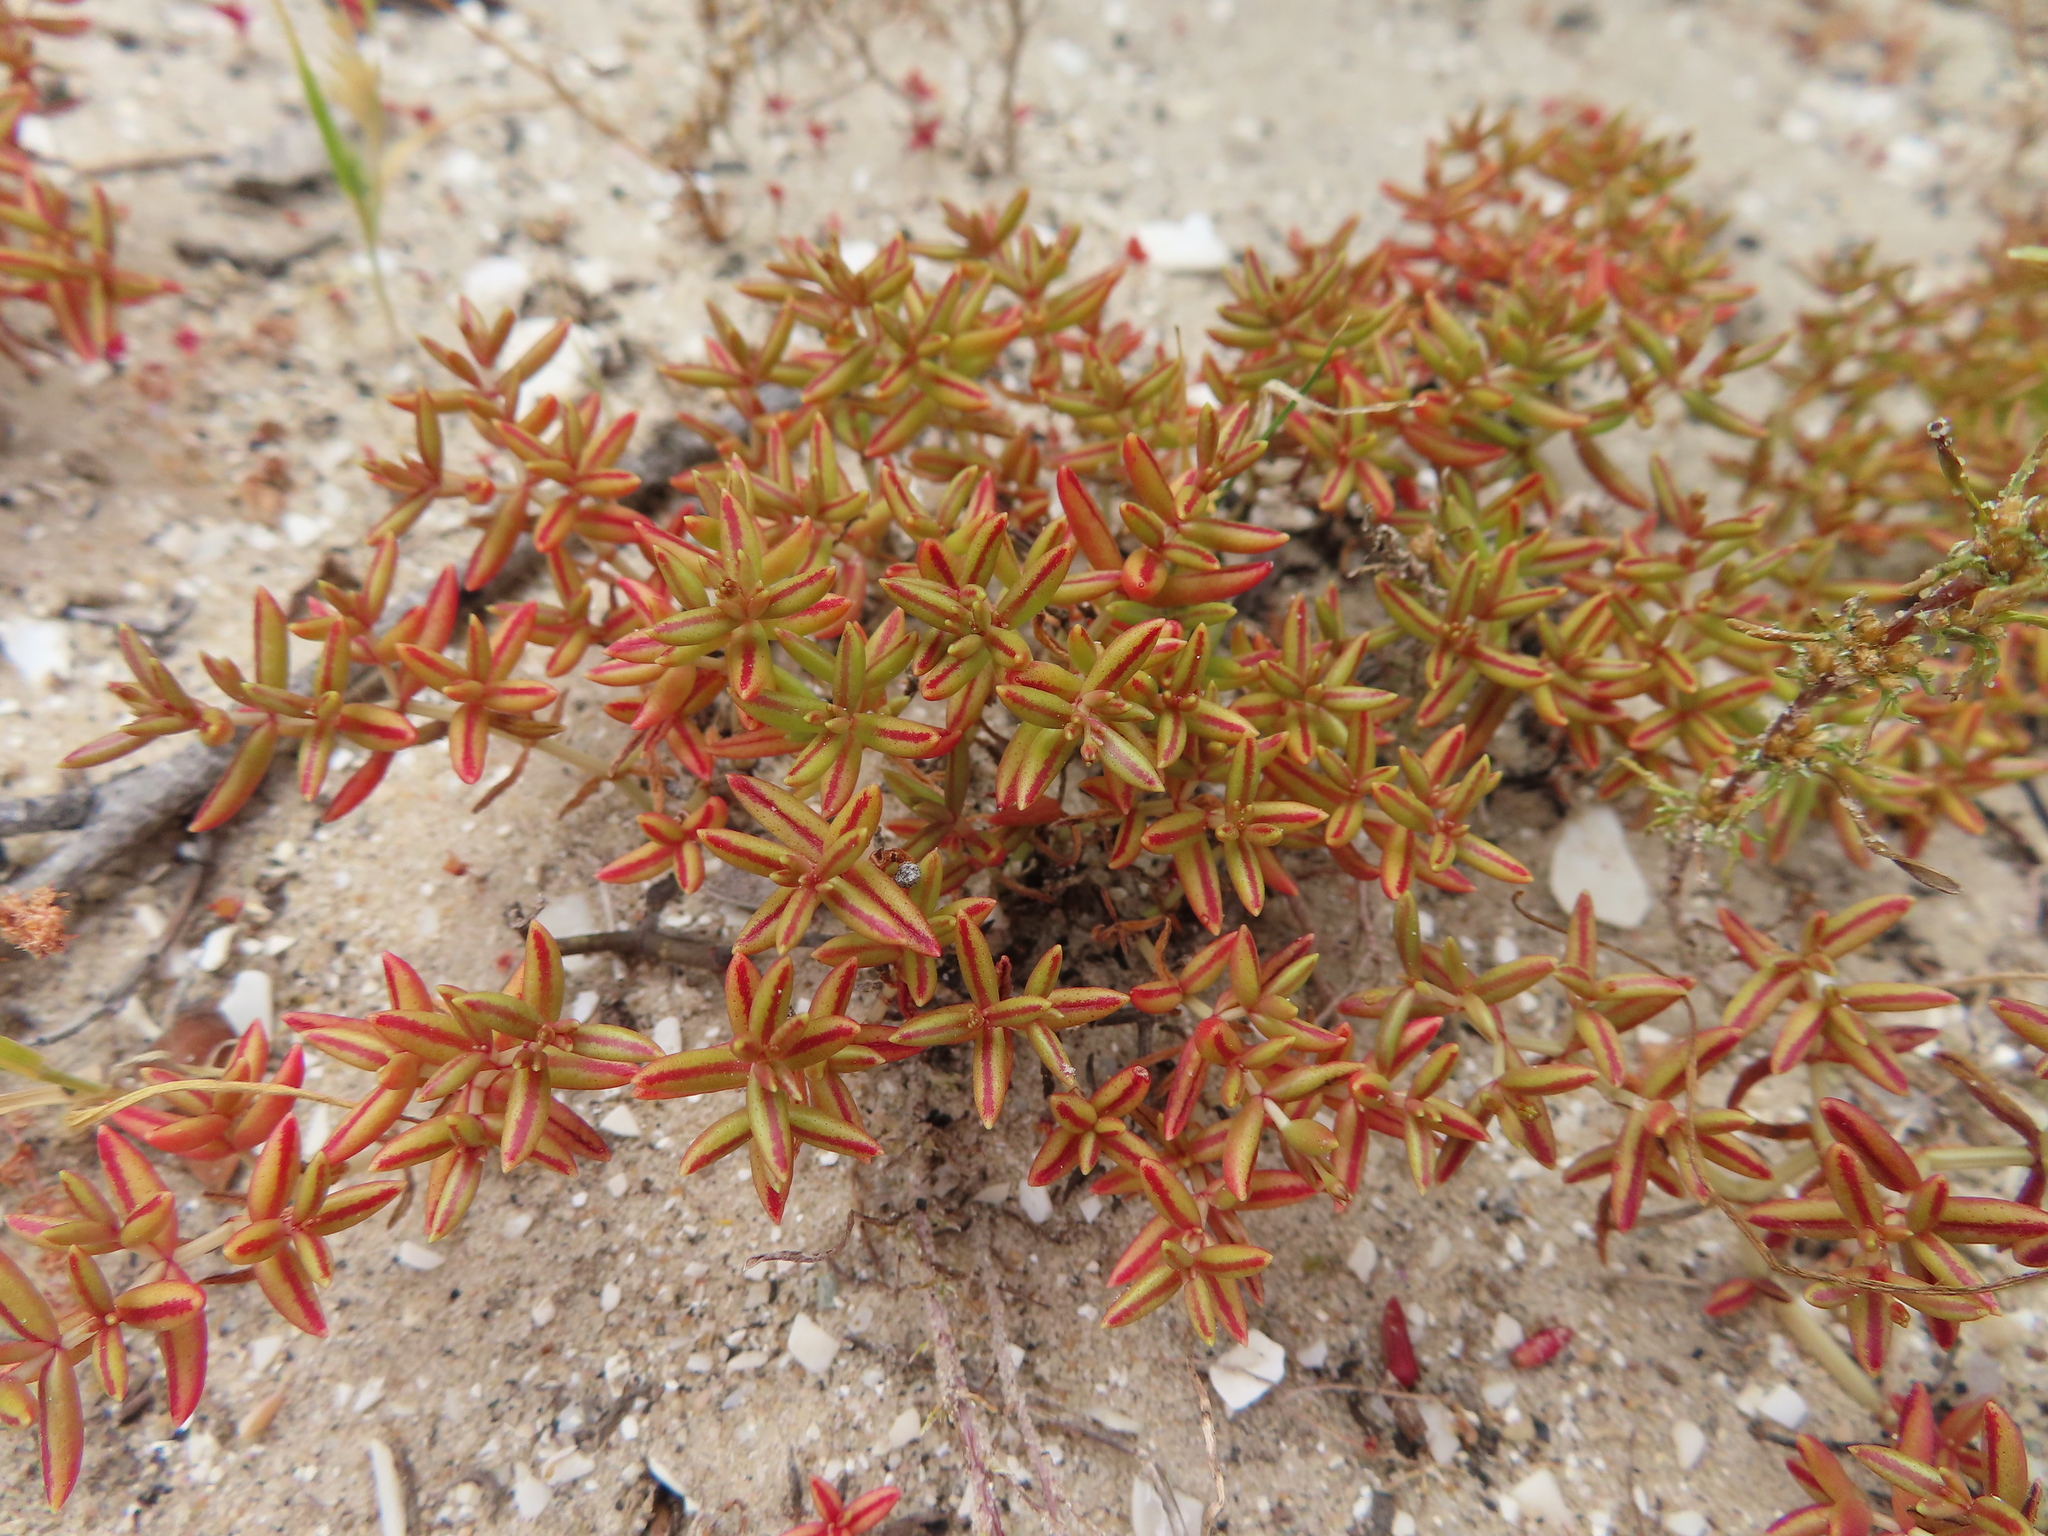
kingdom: Plantae
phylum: Tracheophyta
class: Magnoliopsida
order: Saxifragales
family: Crassulaceae
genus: Crassula
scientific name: Crassula expansa
